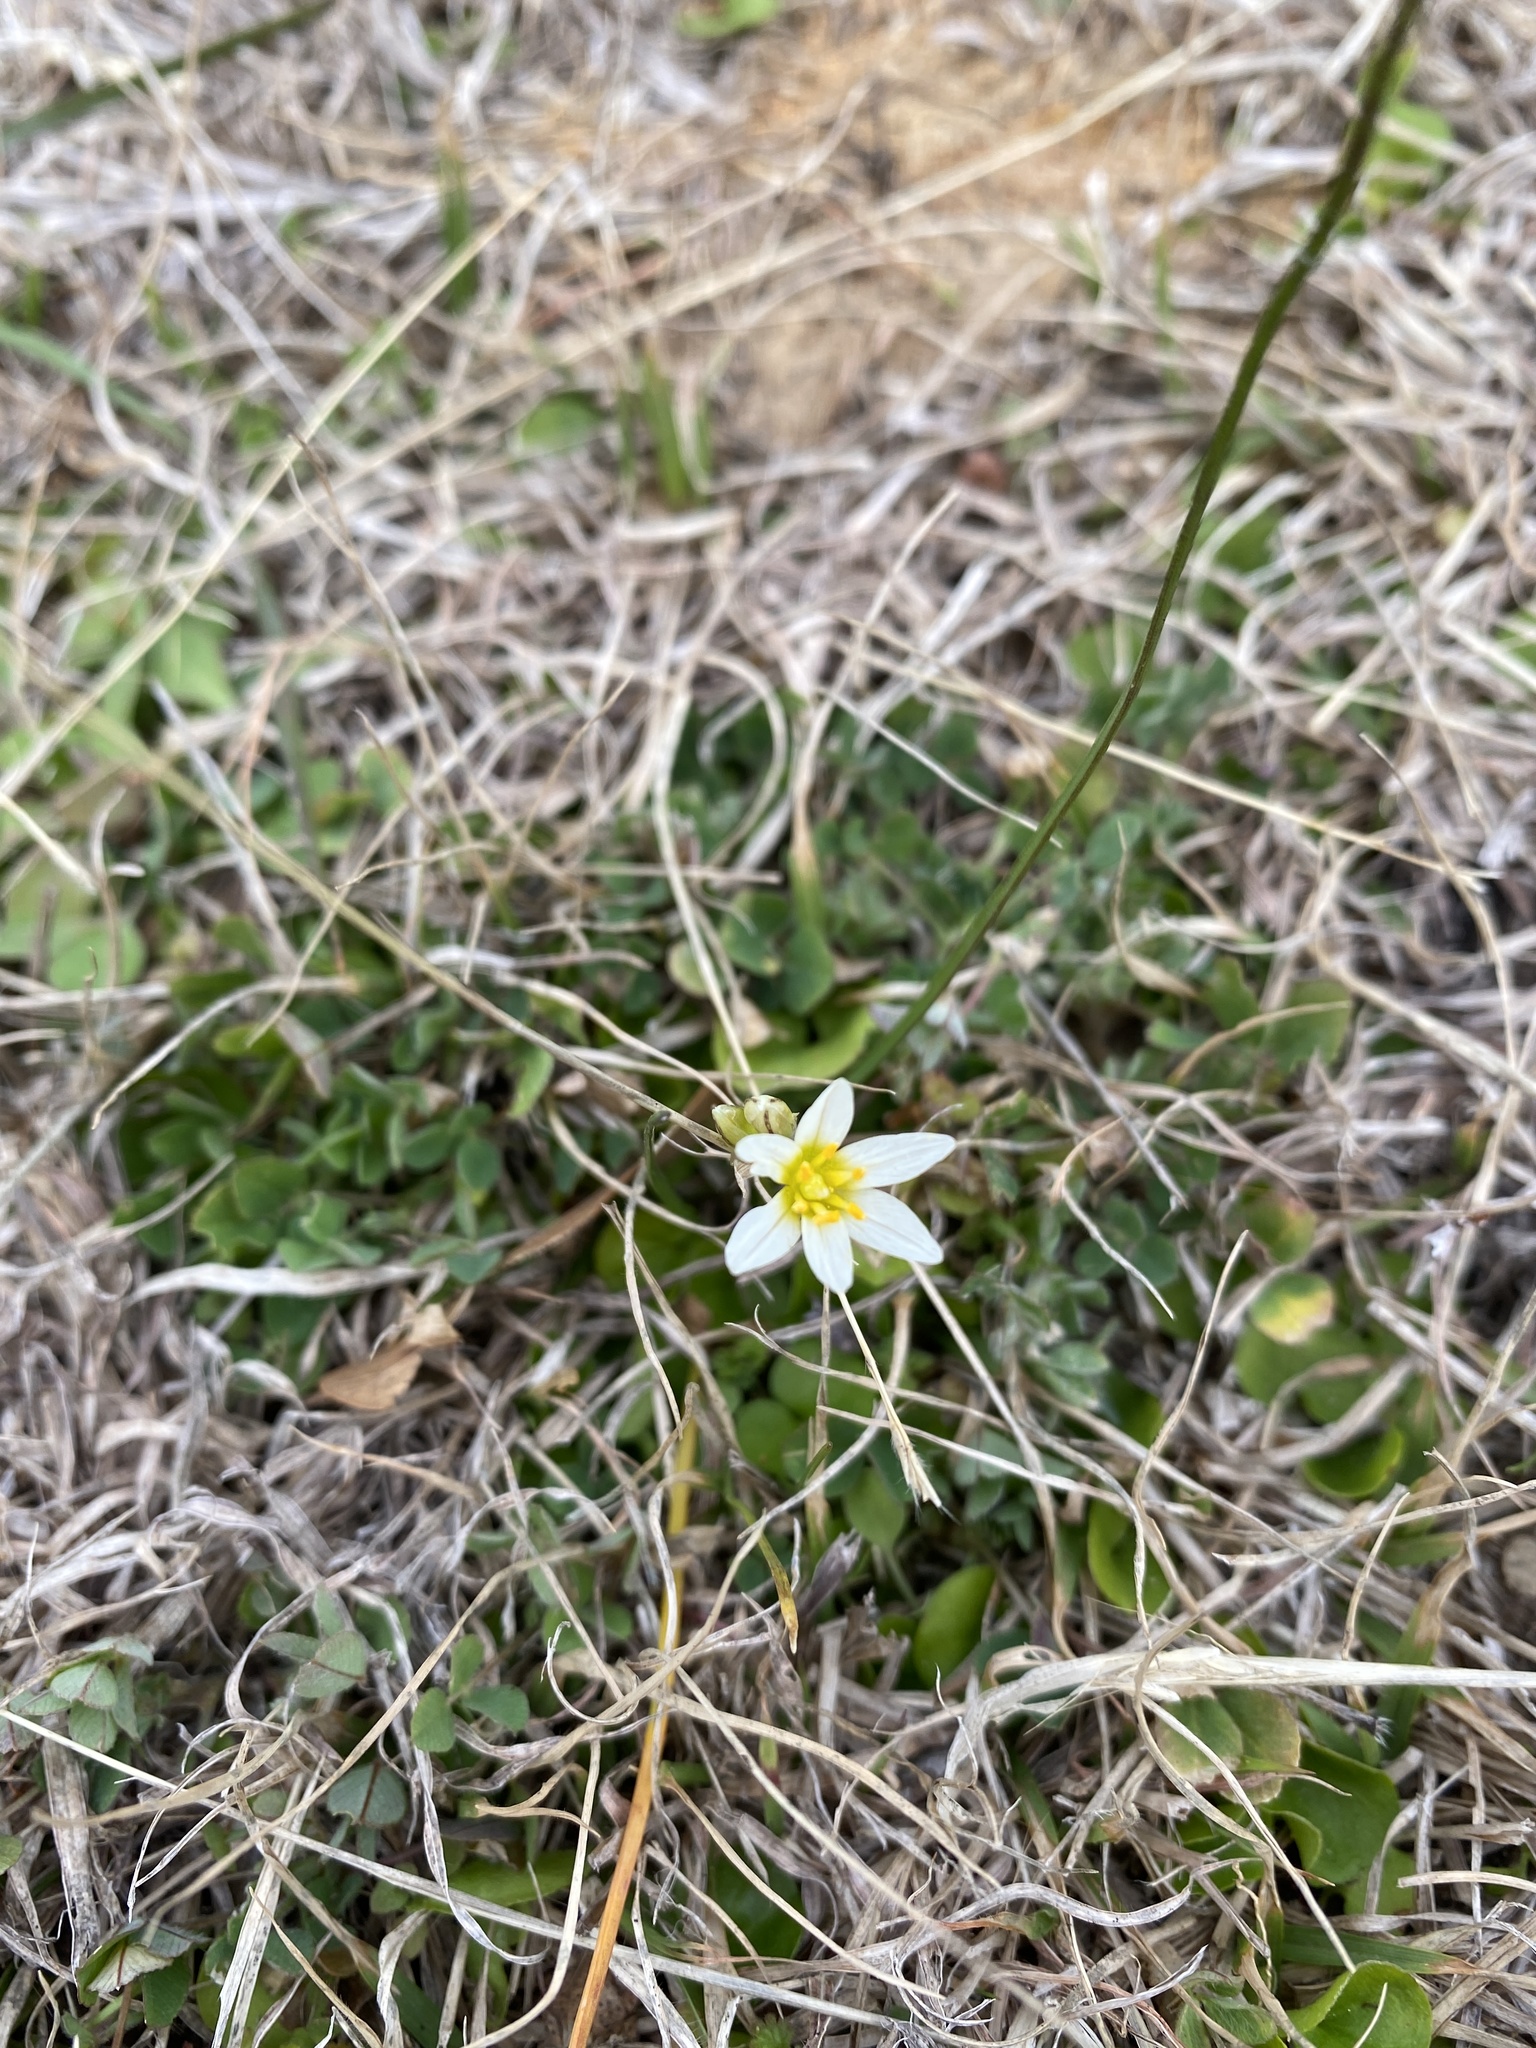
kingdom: Plantae
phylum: Tracheophyta
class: Liliopsida
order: Asparagales
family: Amaryllidaceae
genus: Nothoscordum
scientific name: Nothoscordum bivalve
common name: Crow-poison
